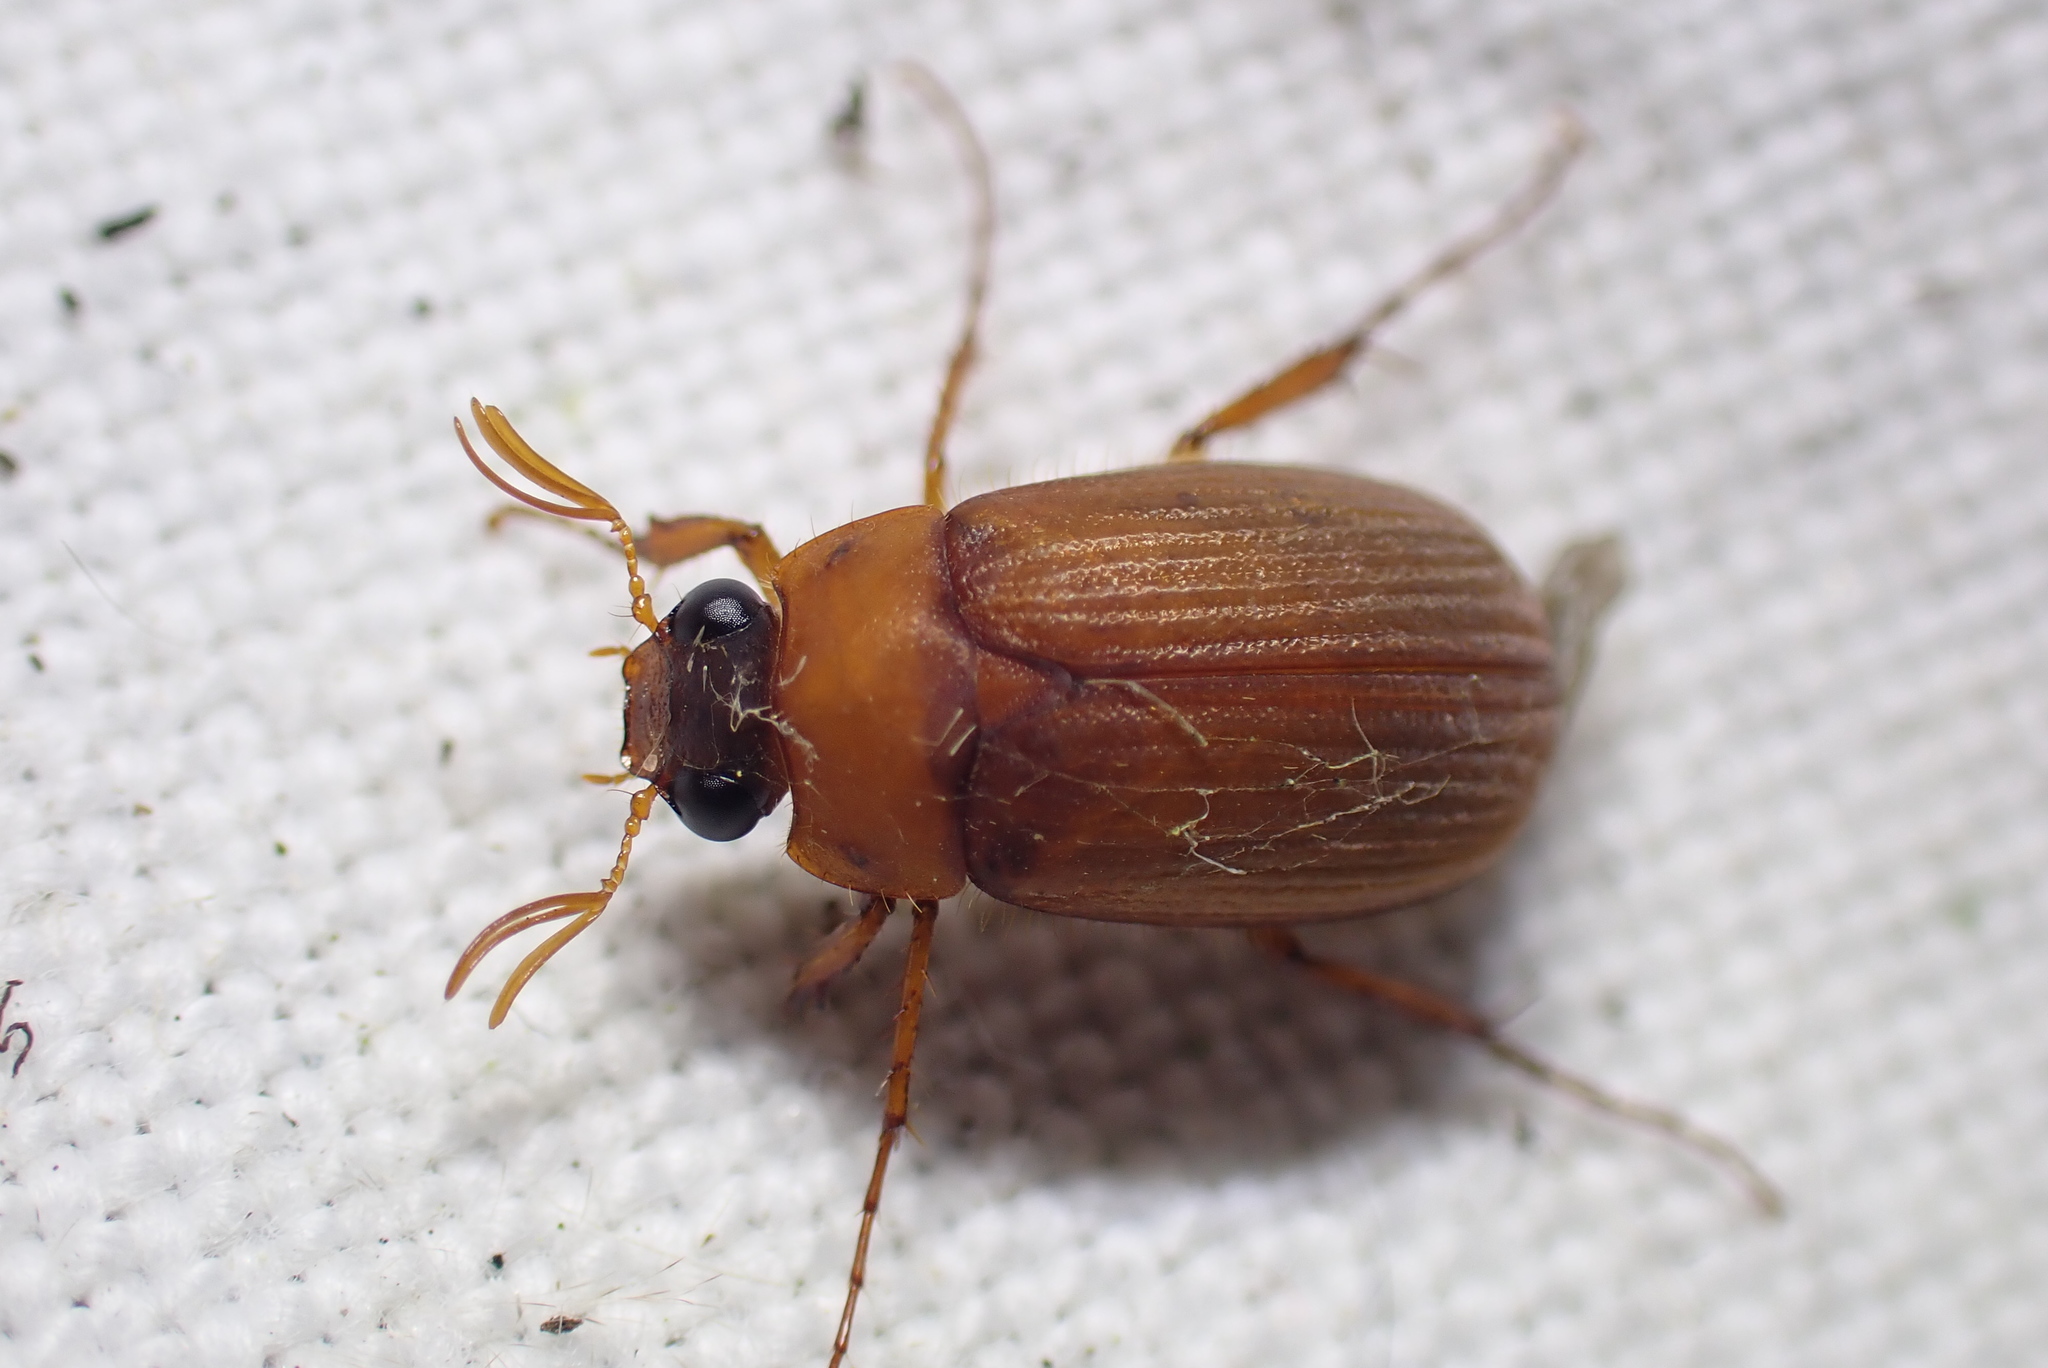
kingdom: Animalia
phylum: Arthropoda
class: Insecta
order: Coleoptera
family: Scarabaeidae
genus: Serica
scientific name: Serica brunnea
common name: Brown chafer
